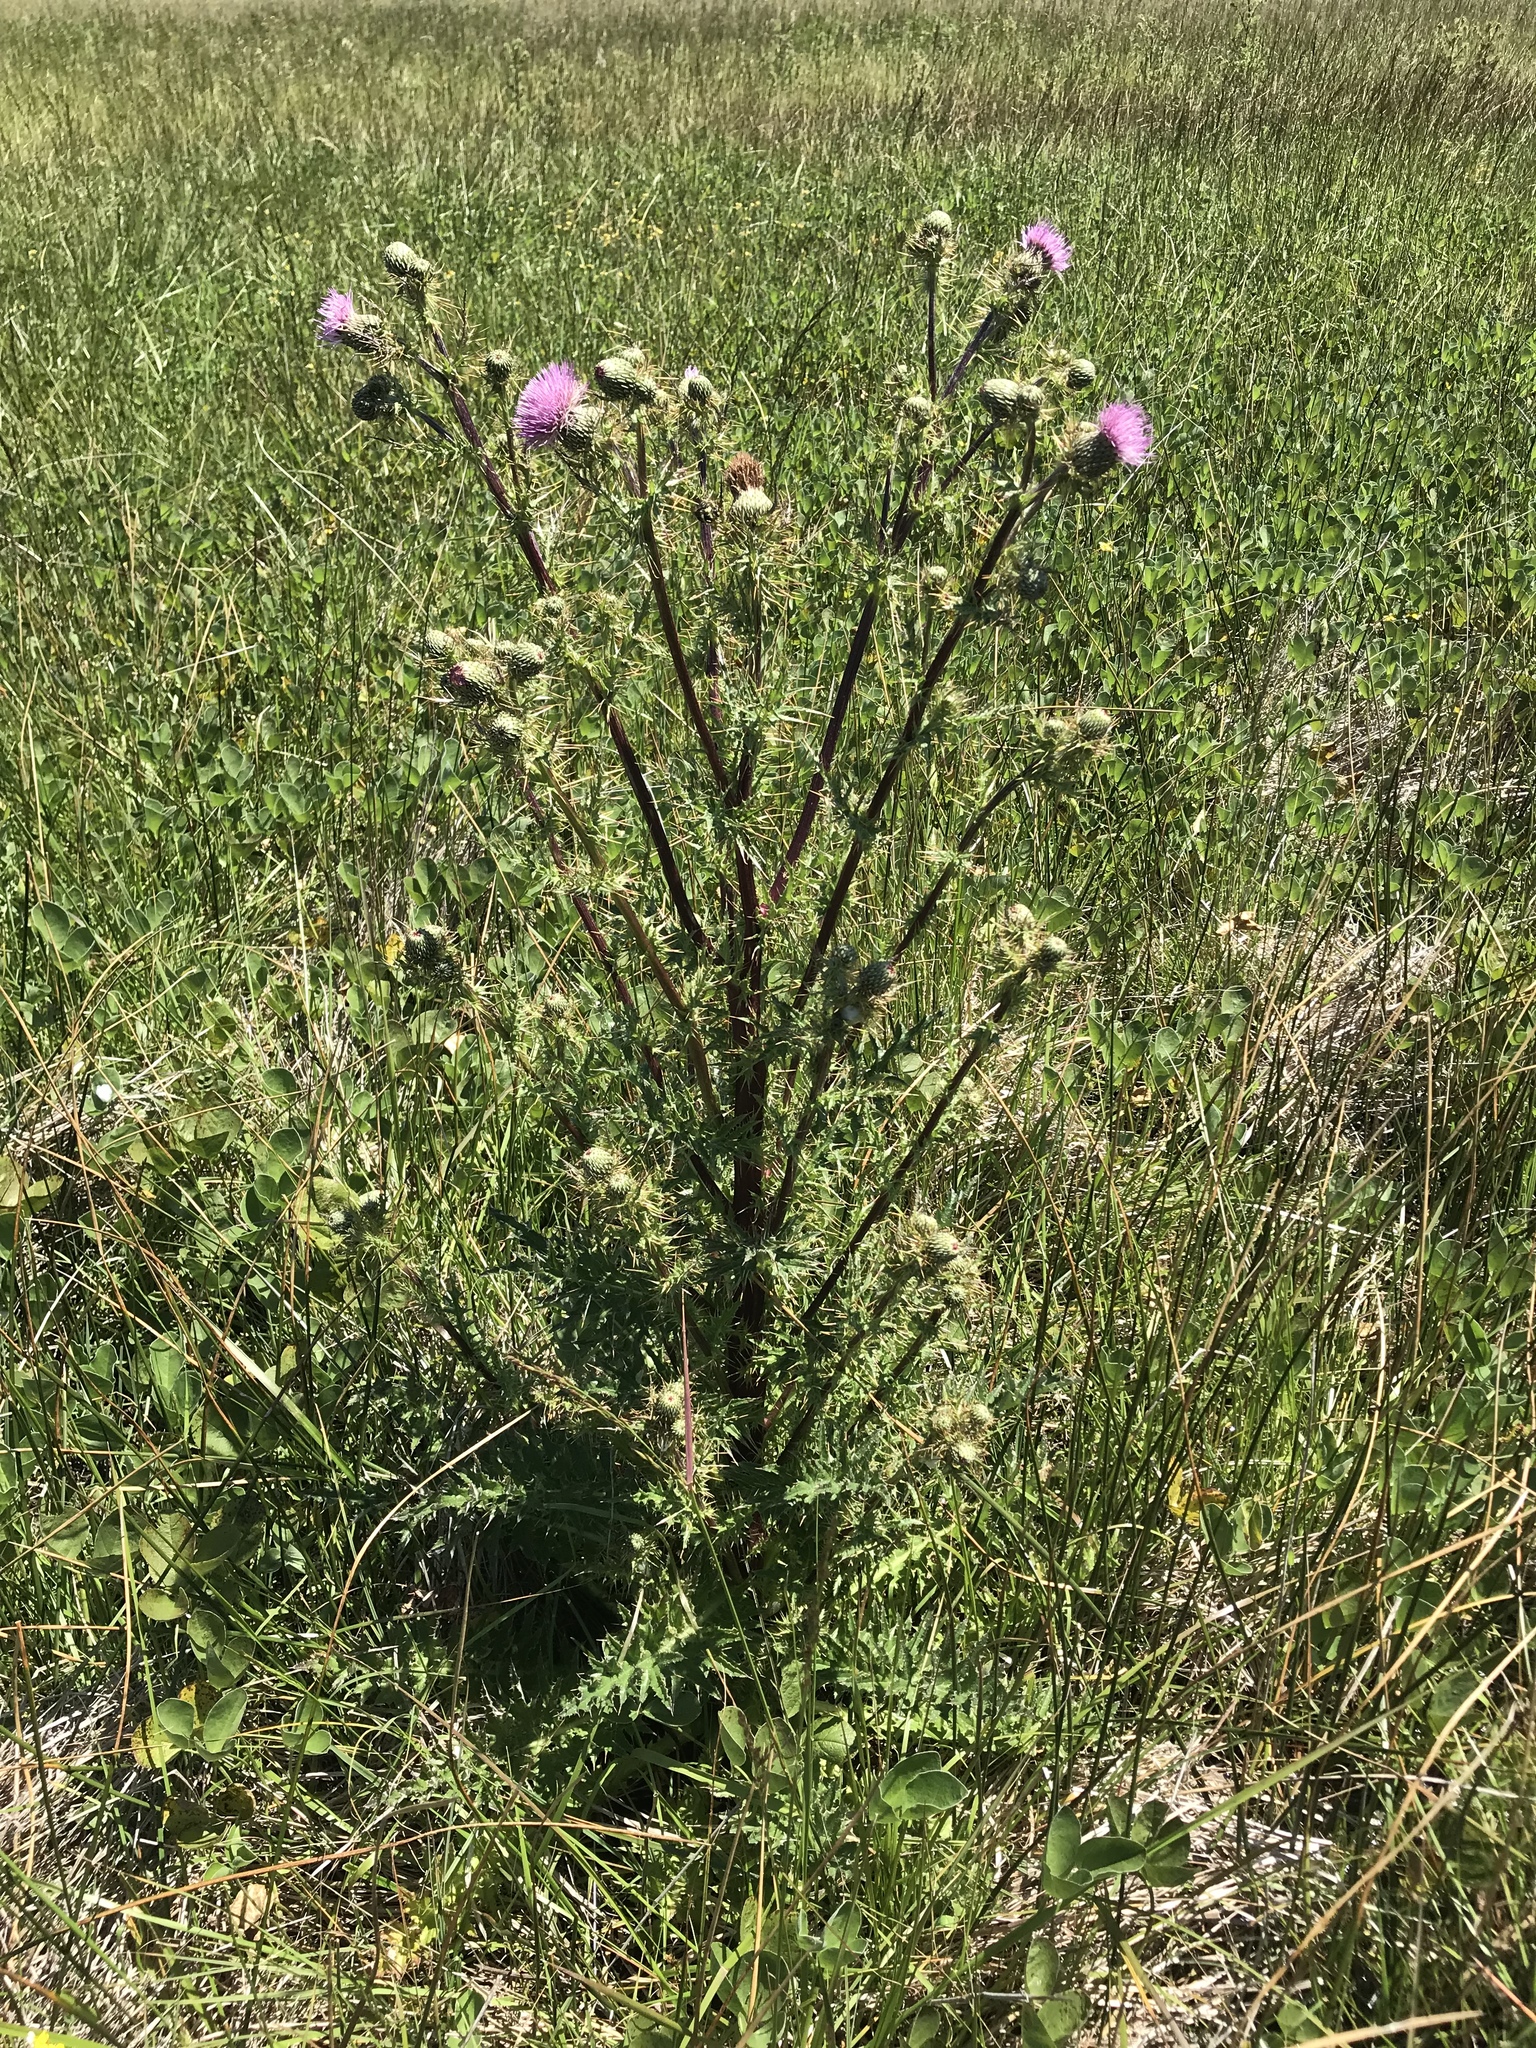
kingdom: Plantae
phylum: Tracheophyta
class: Magnoliopsida
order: Asterales
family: Asteraceae
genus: Cirsium
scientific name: Cirsium hydrophilum
